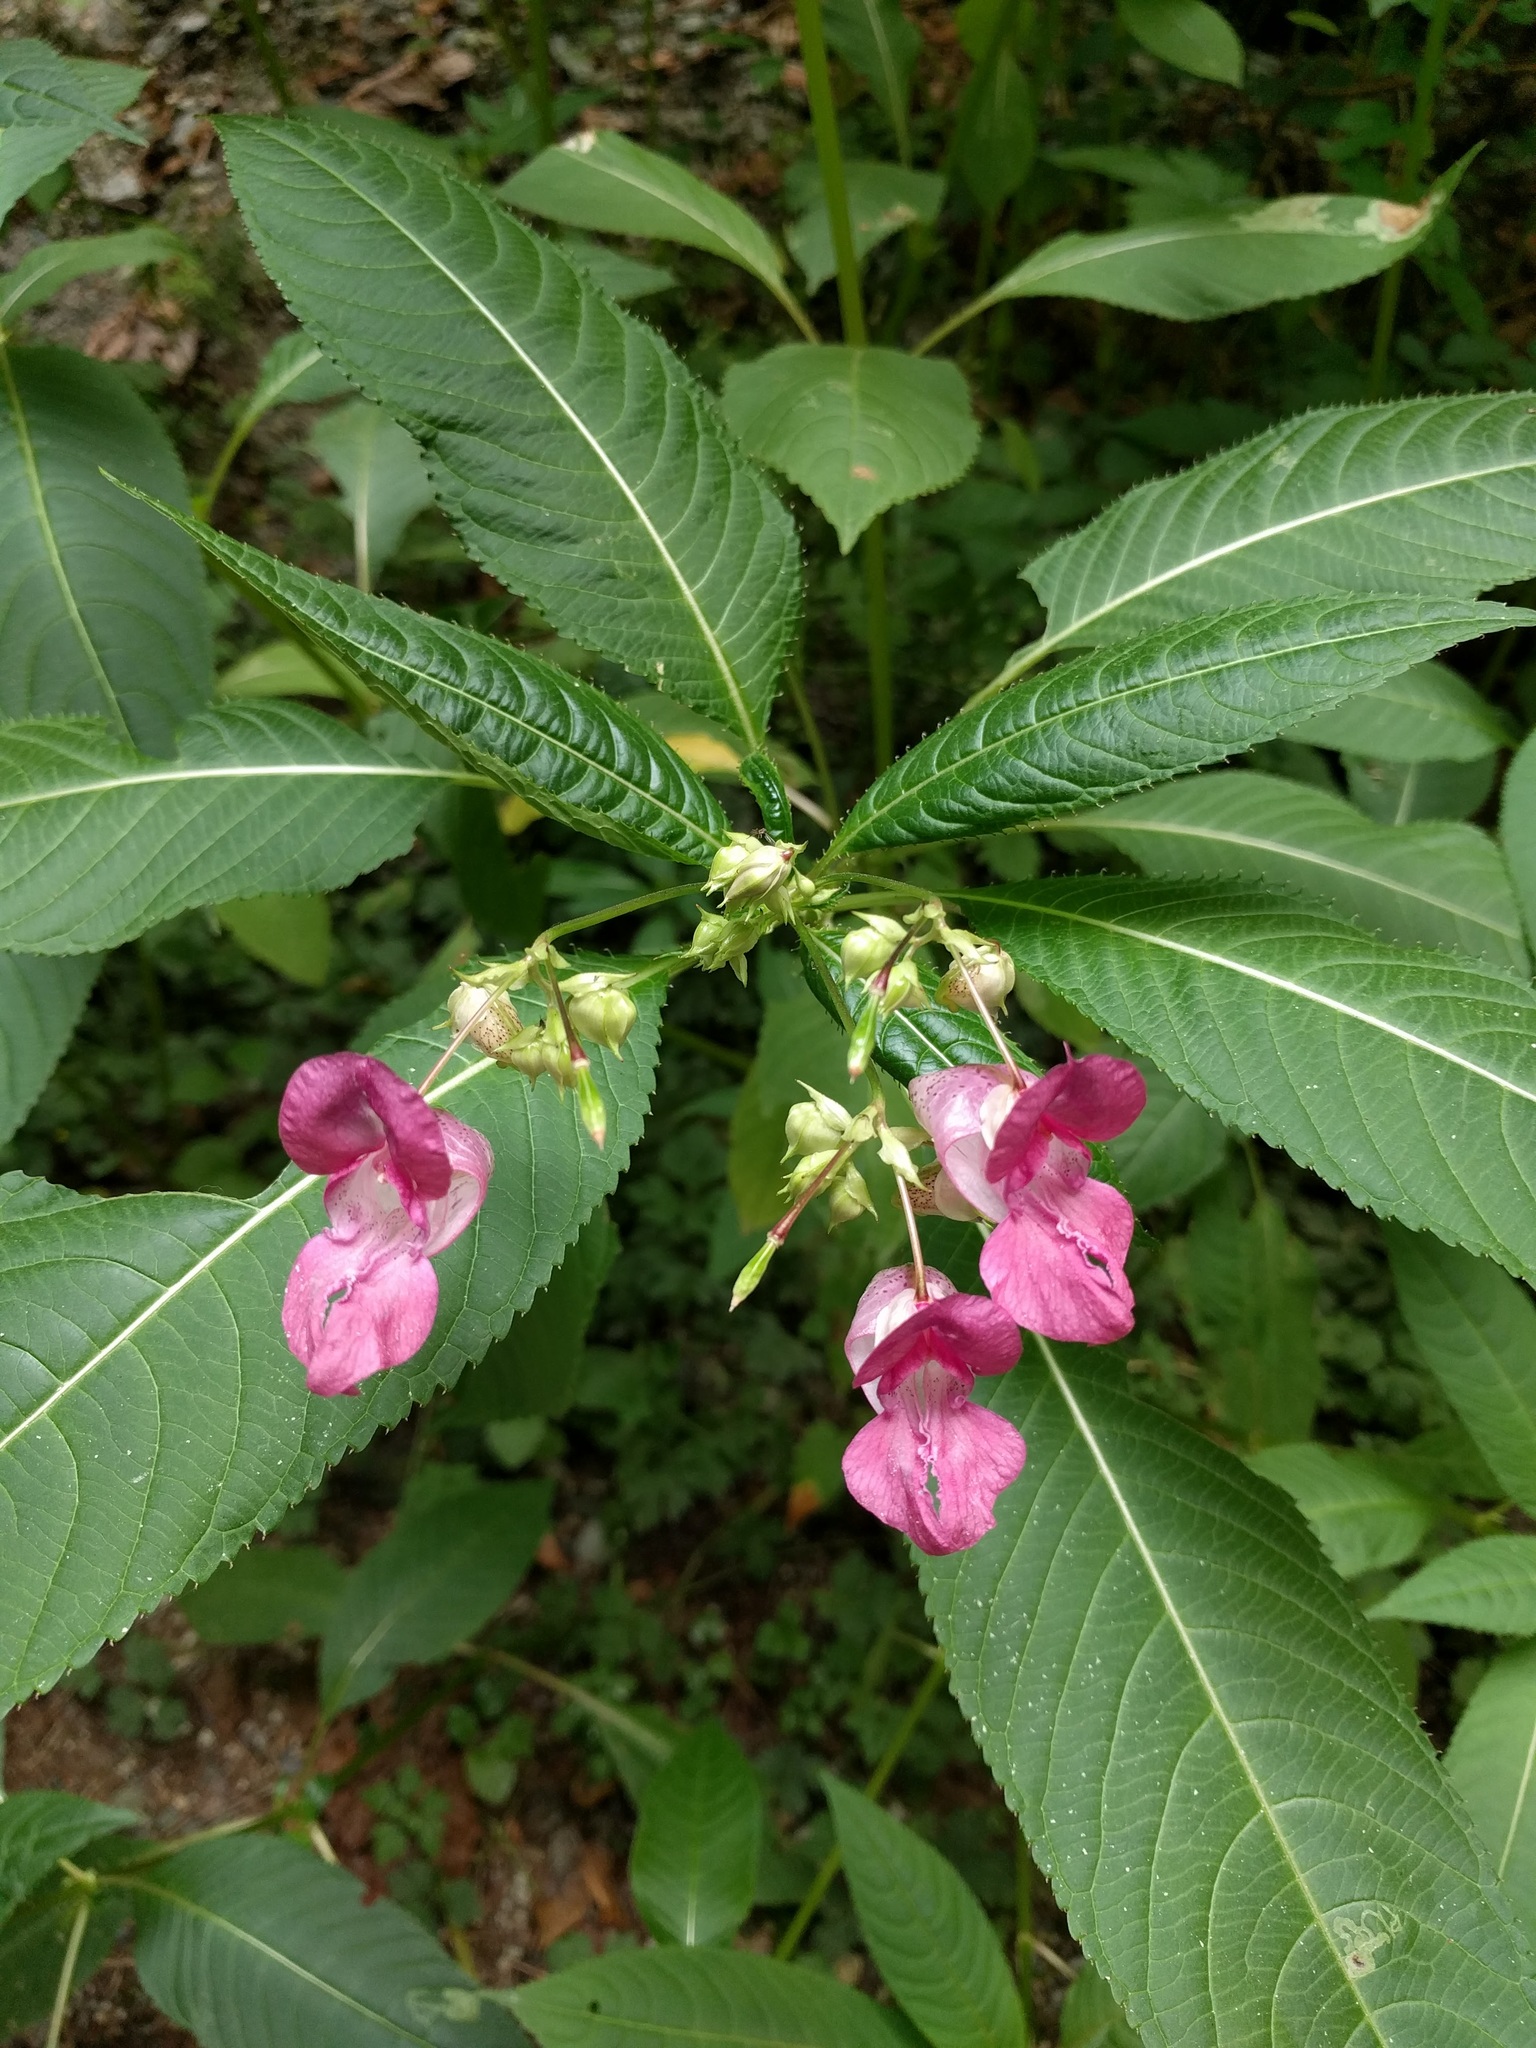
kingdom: Plantae
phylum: Tracheophyta
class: Magnoliopsida
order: Ericales
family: Balsaminaceae
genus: Impatiens
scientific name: Impatiens glandulifera
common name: Himalayan balsam
